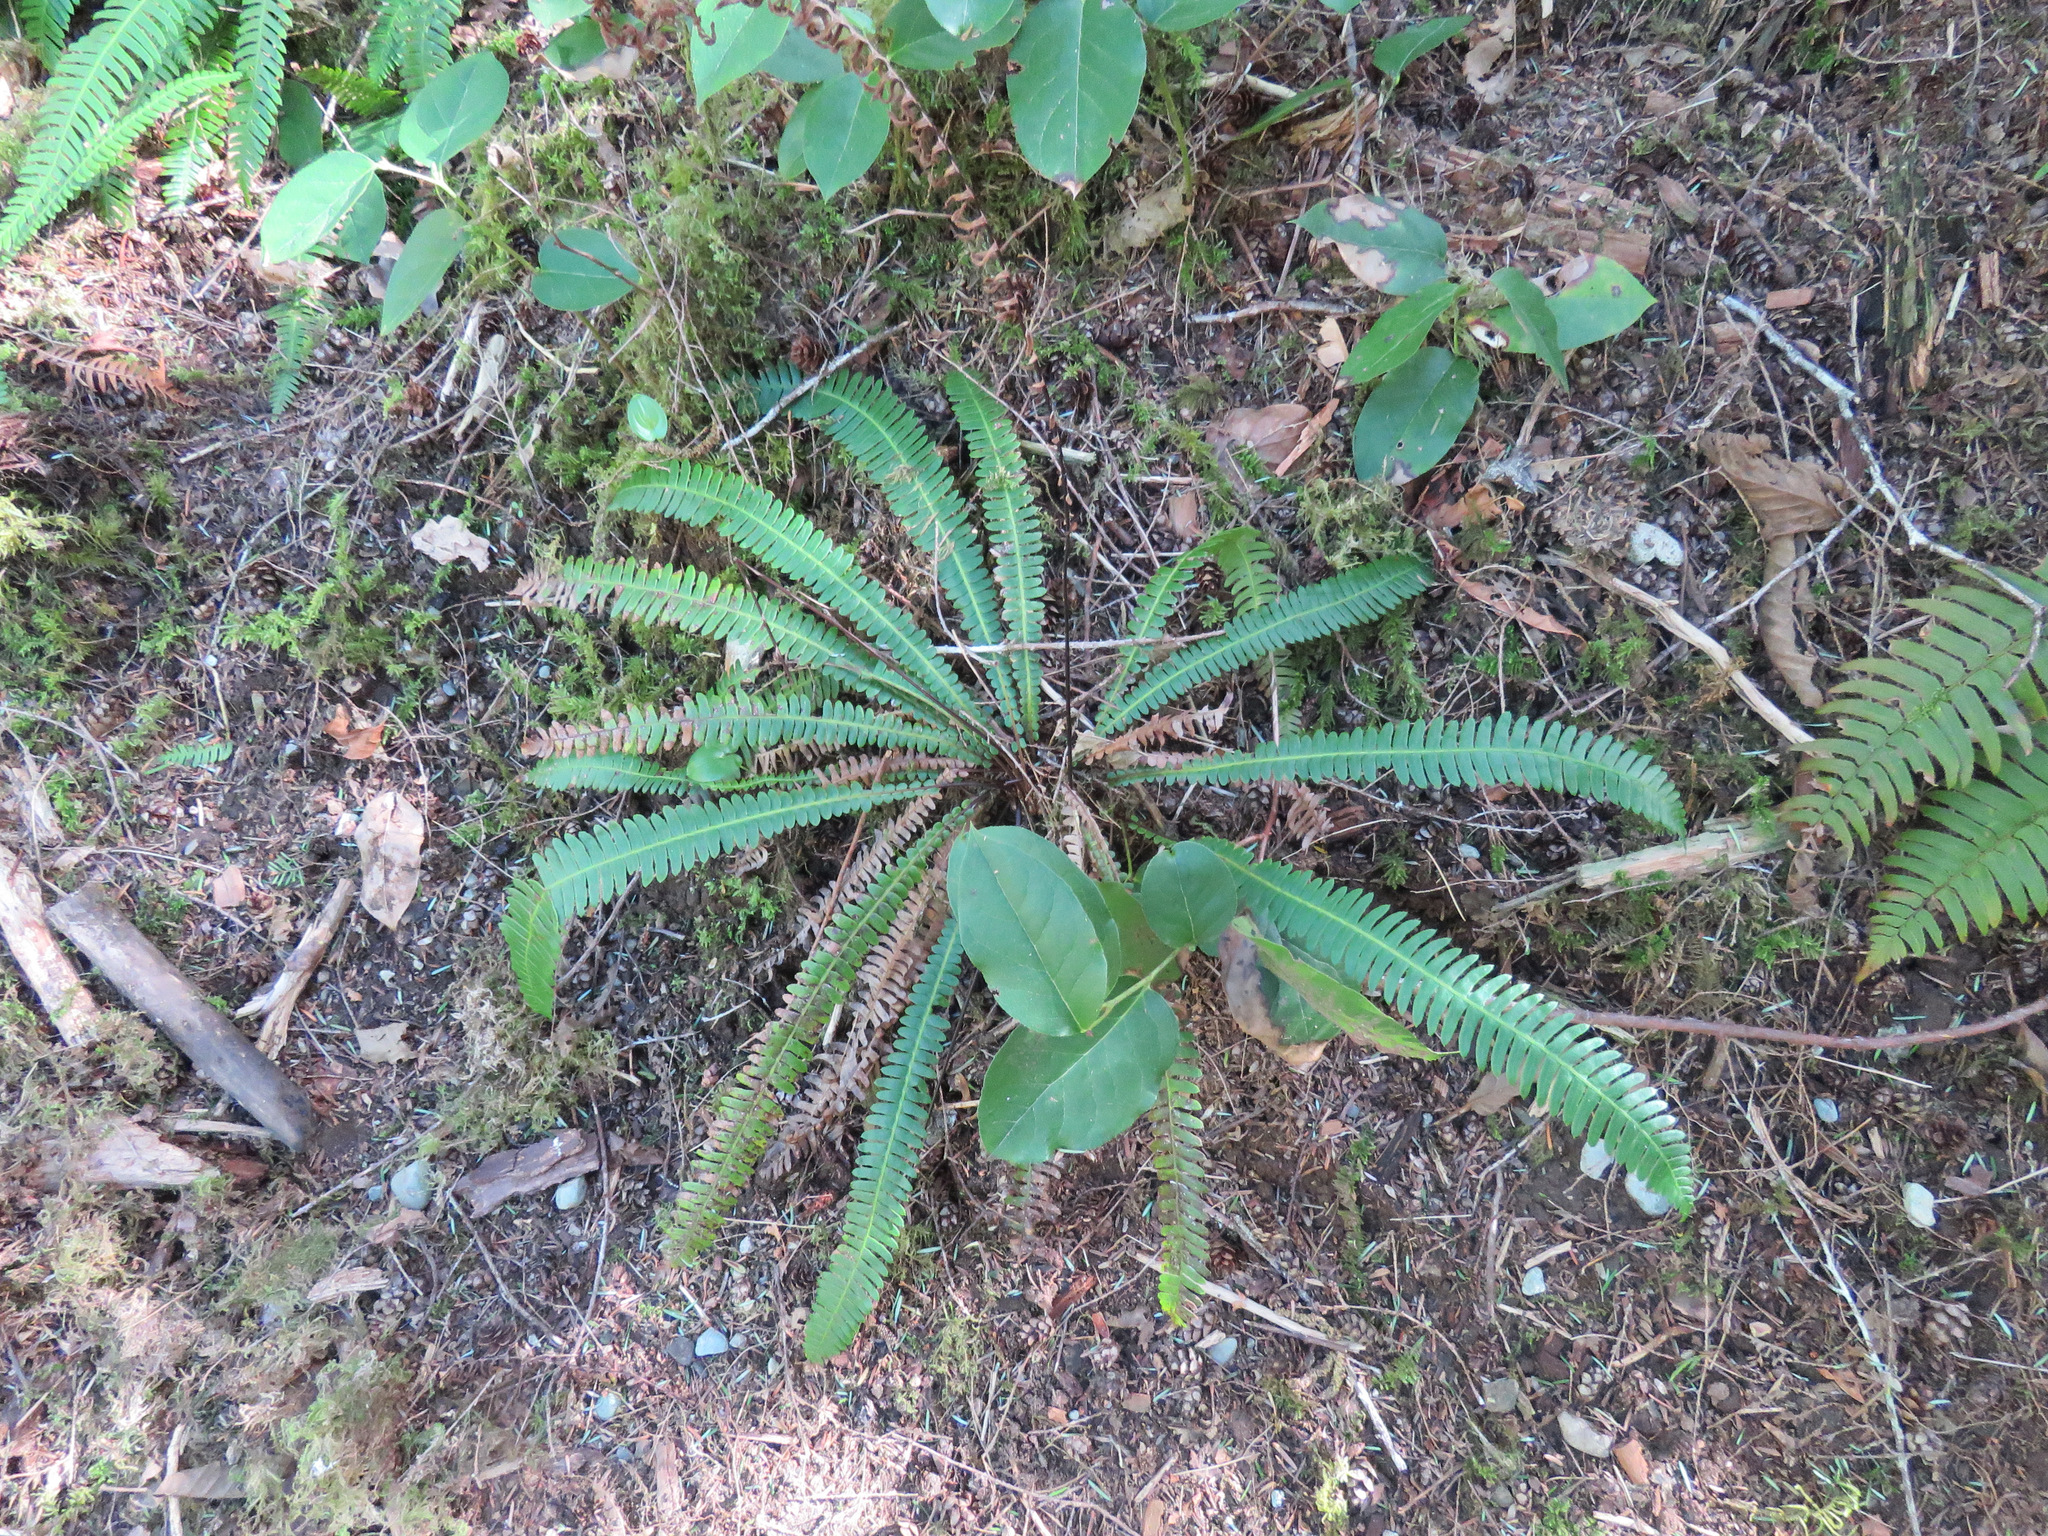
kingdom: Plantae
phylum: Tracheophyta
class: Polypodiopsida
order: Polypodiales
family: Blechnaceae
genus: Struthiopteris
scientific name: Struthiopteris spicant
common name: Deer fern
